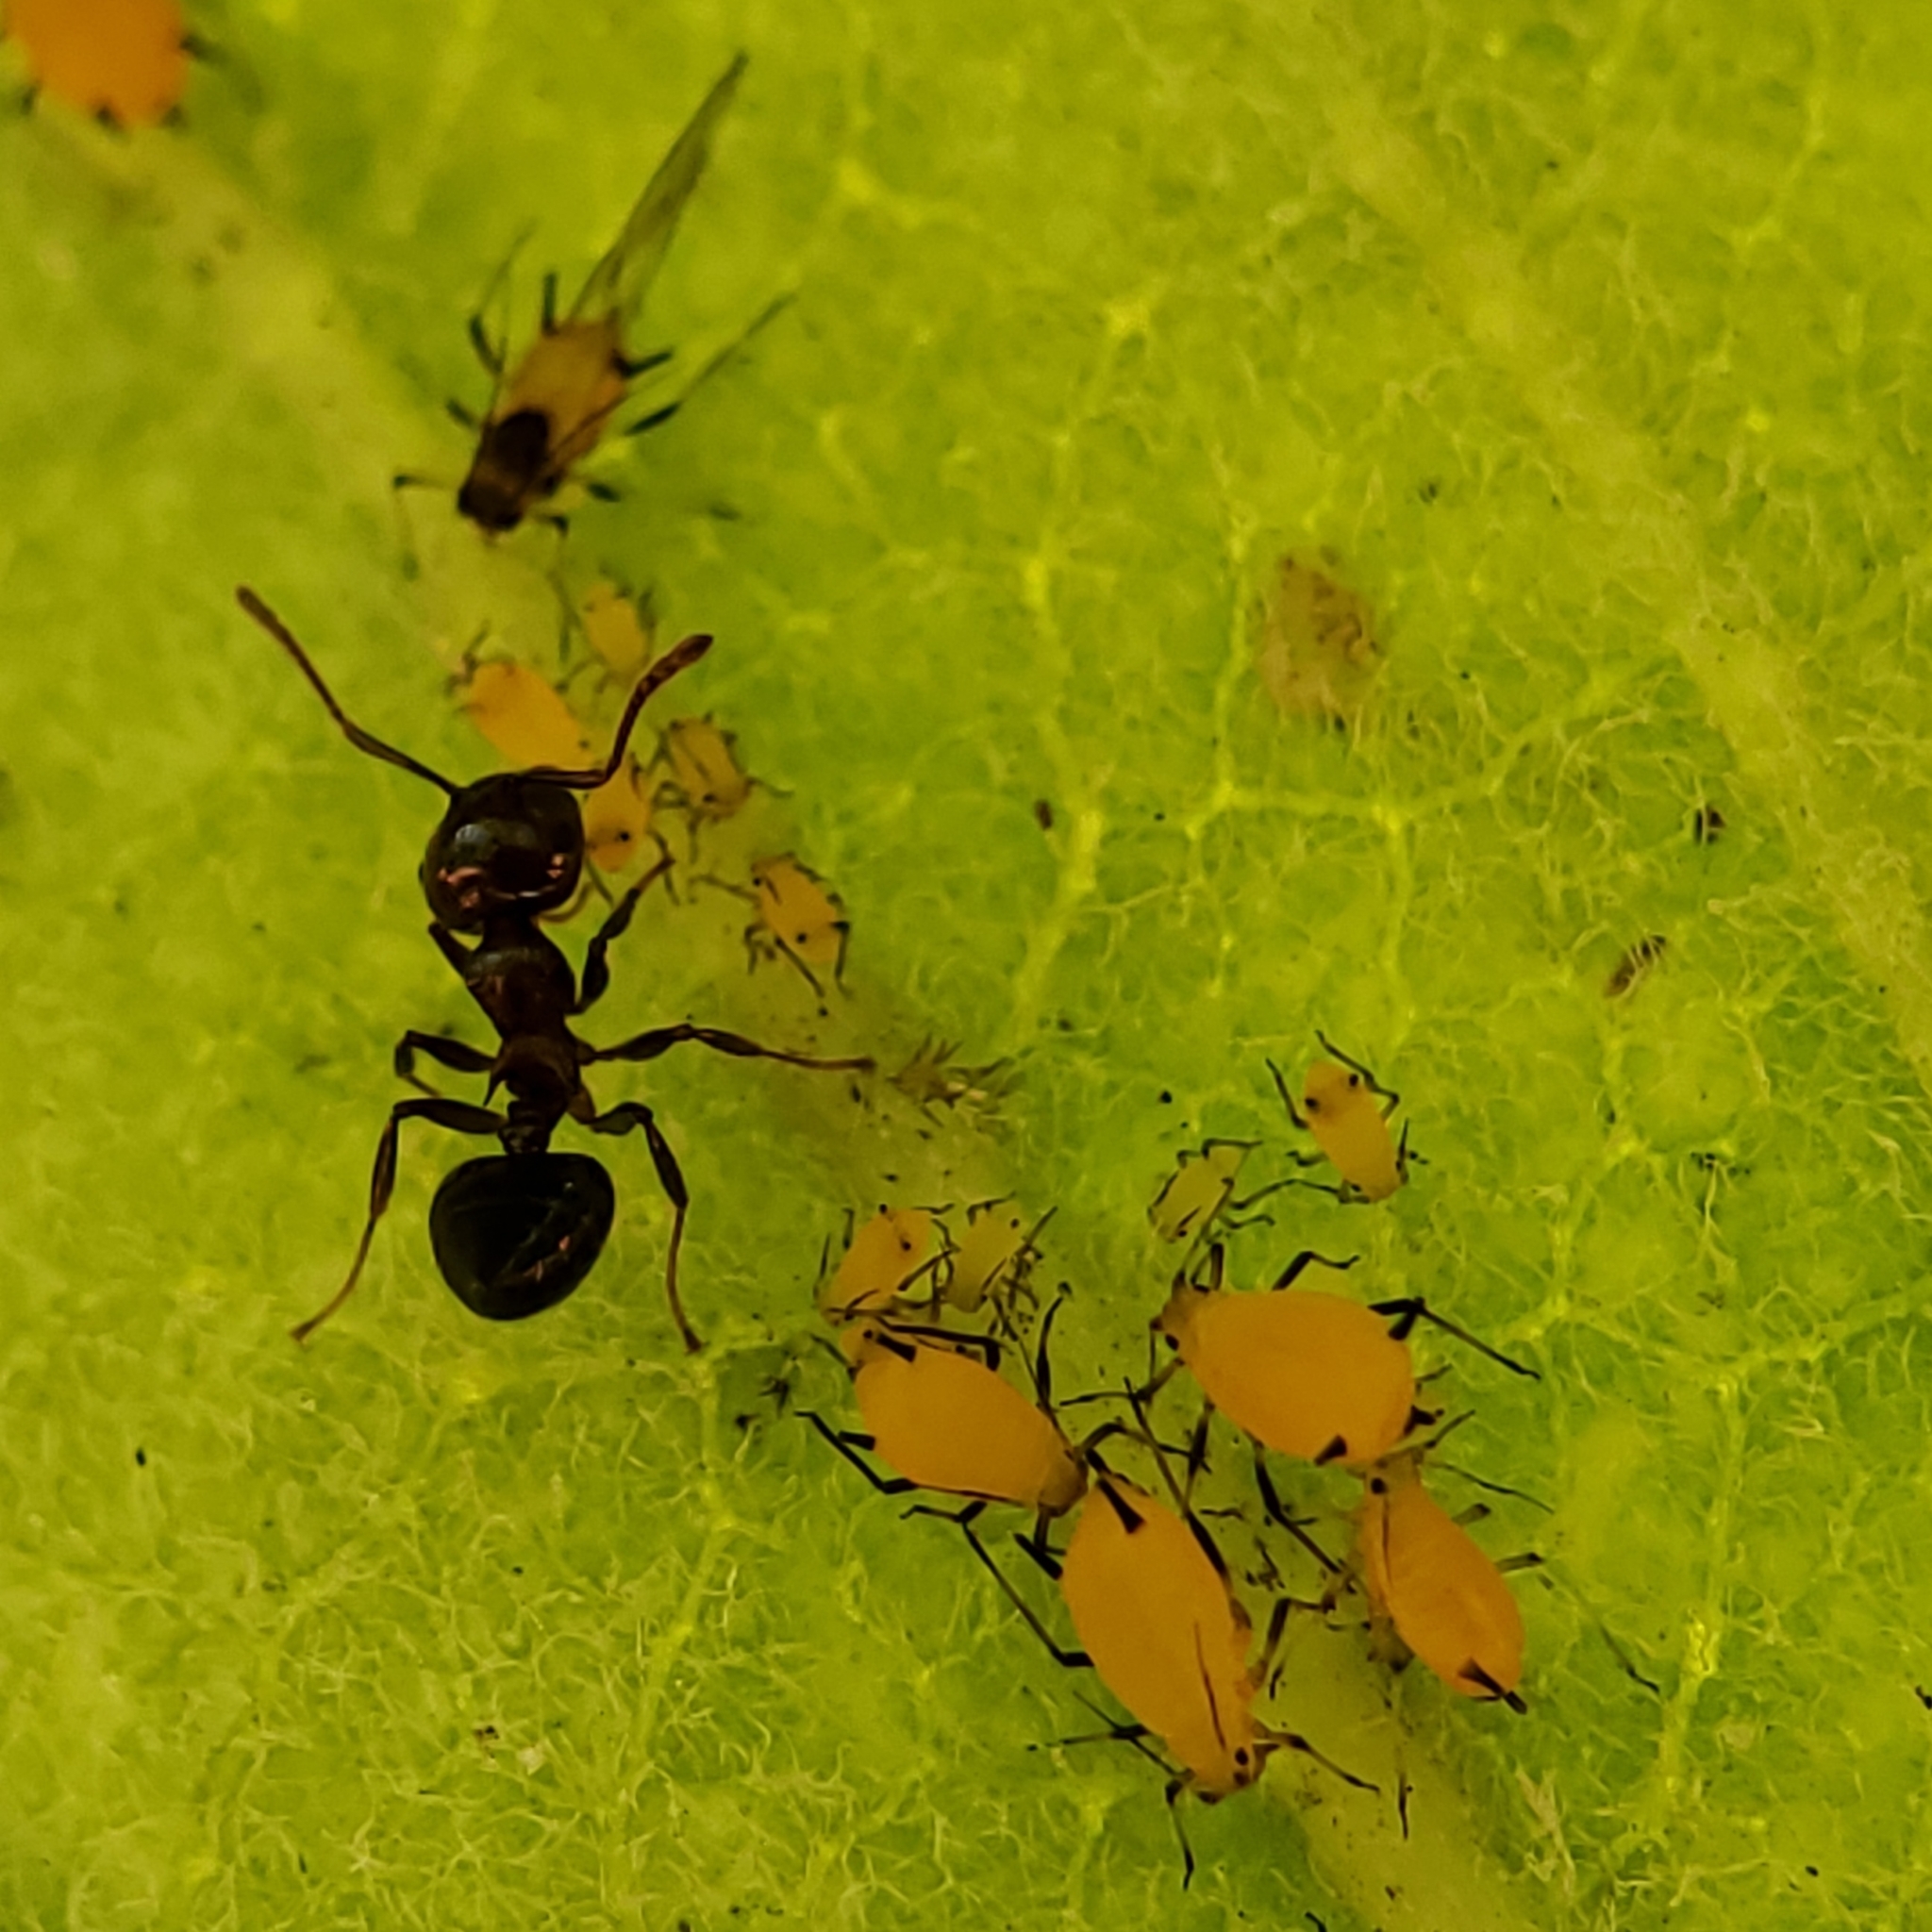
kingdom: Animalia
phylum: Arthropoda
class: Insecta
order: Hemiptera
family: Aphididae
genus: Aphis
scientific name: Aphis nerii
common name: Oleander aphid
